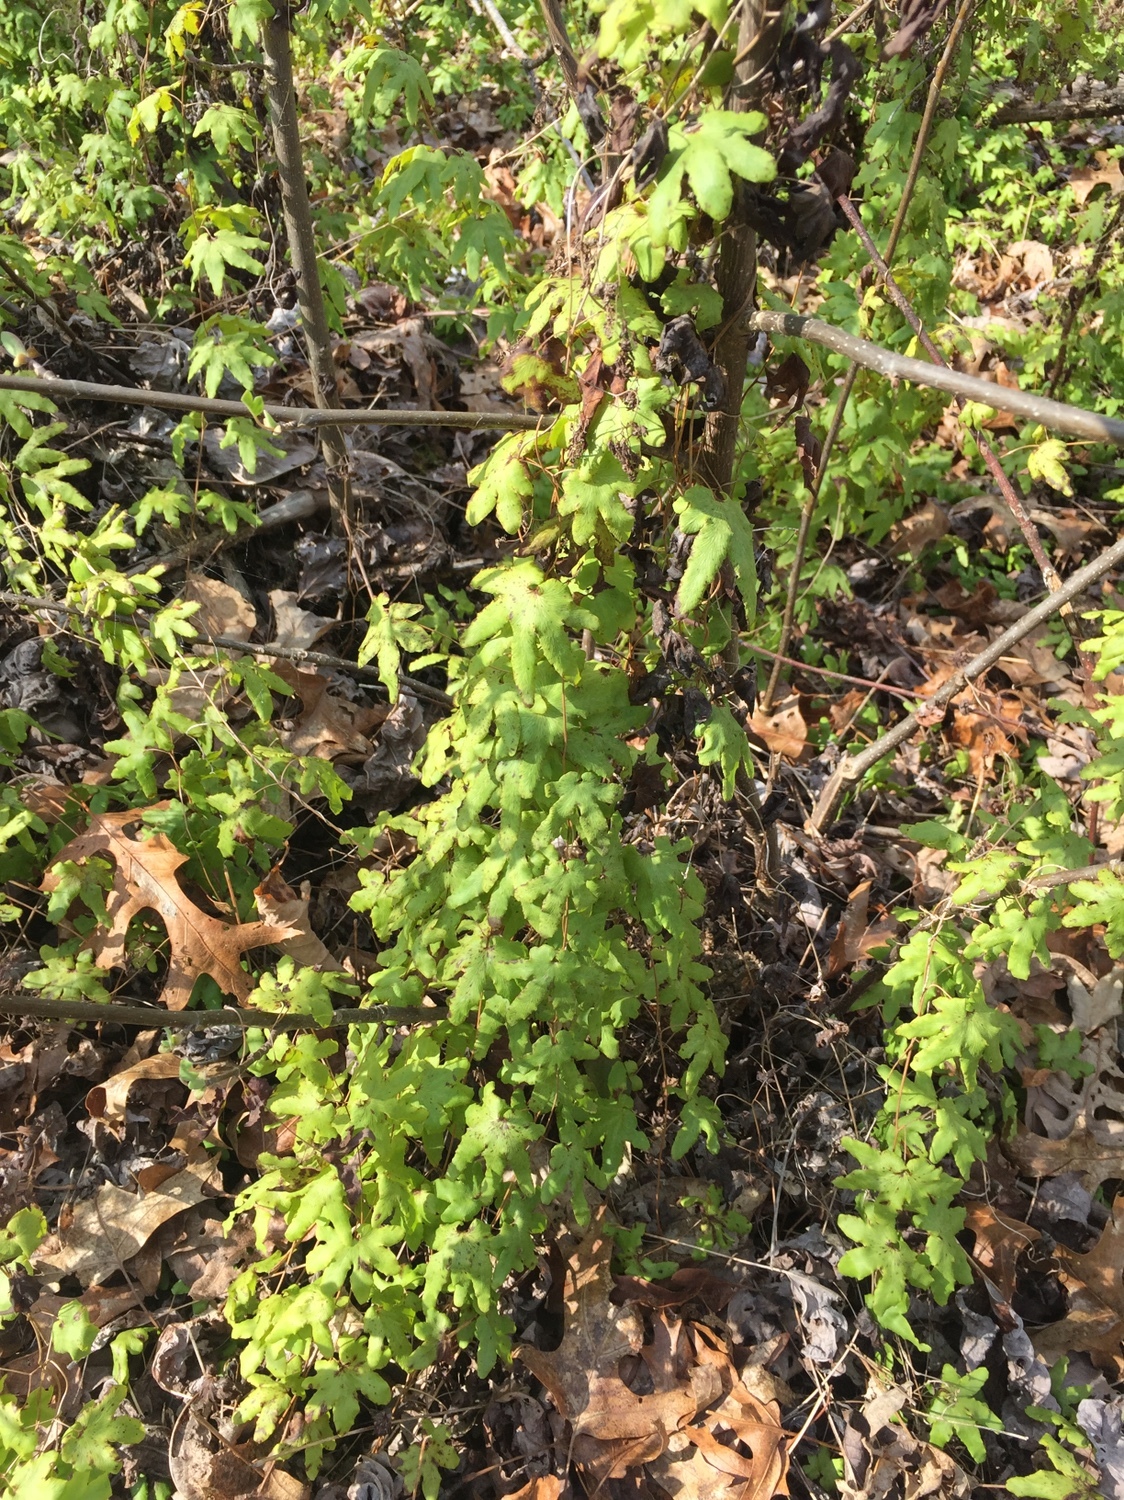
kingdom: Plantae
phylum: Tracheophyta
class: Polypodiopsida
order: Schizaeales
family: Lygodiaceae
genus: Lygodium
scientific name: Lygodium palmatum
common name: American climbing fern
